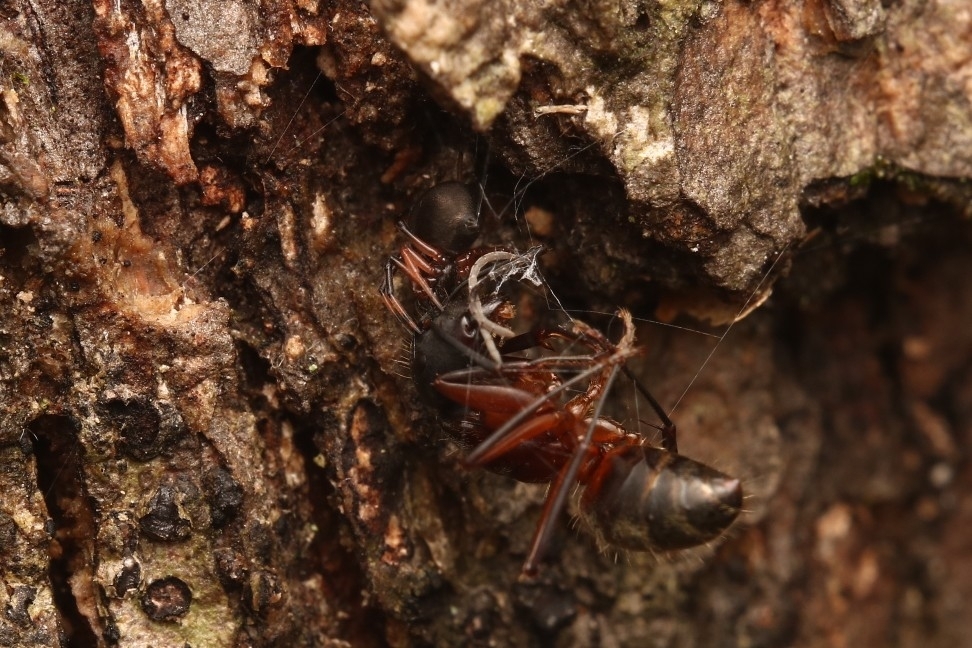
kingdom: Animalia
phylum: Arthropoda
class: Insecta
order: Hymenoptera
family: Formicidae
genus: Camponotus
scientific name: Camponotus chromaiodes
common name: Red carpenter ant
